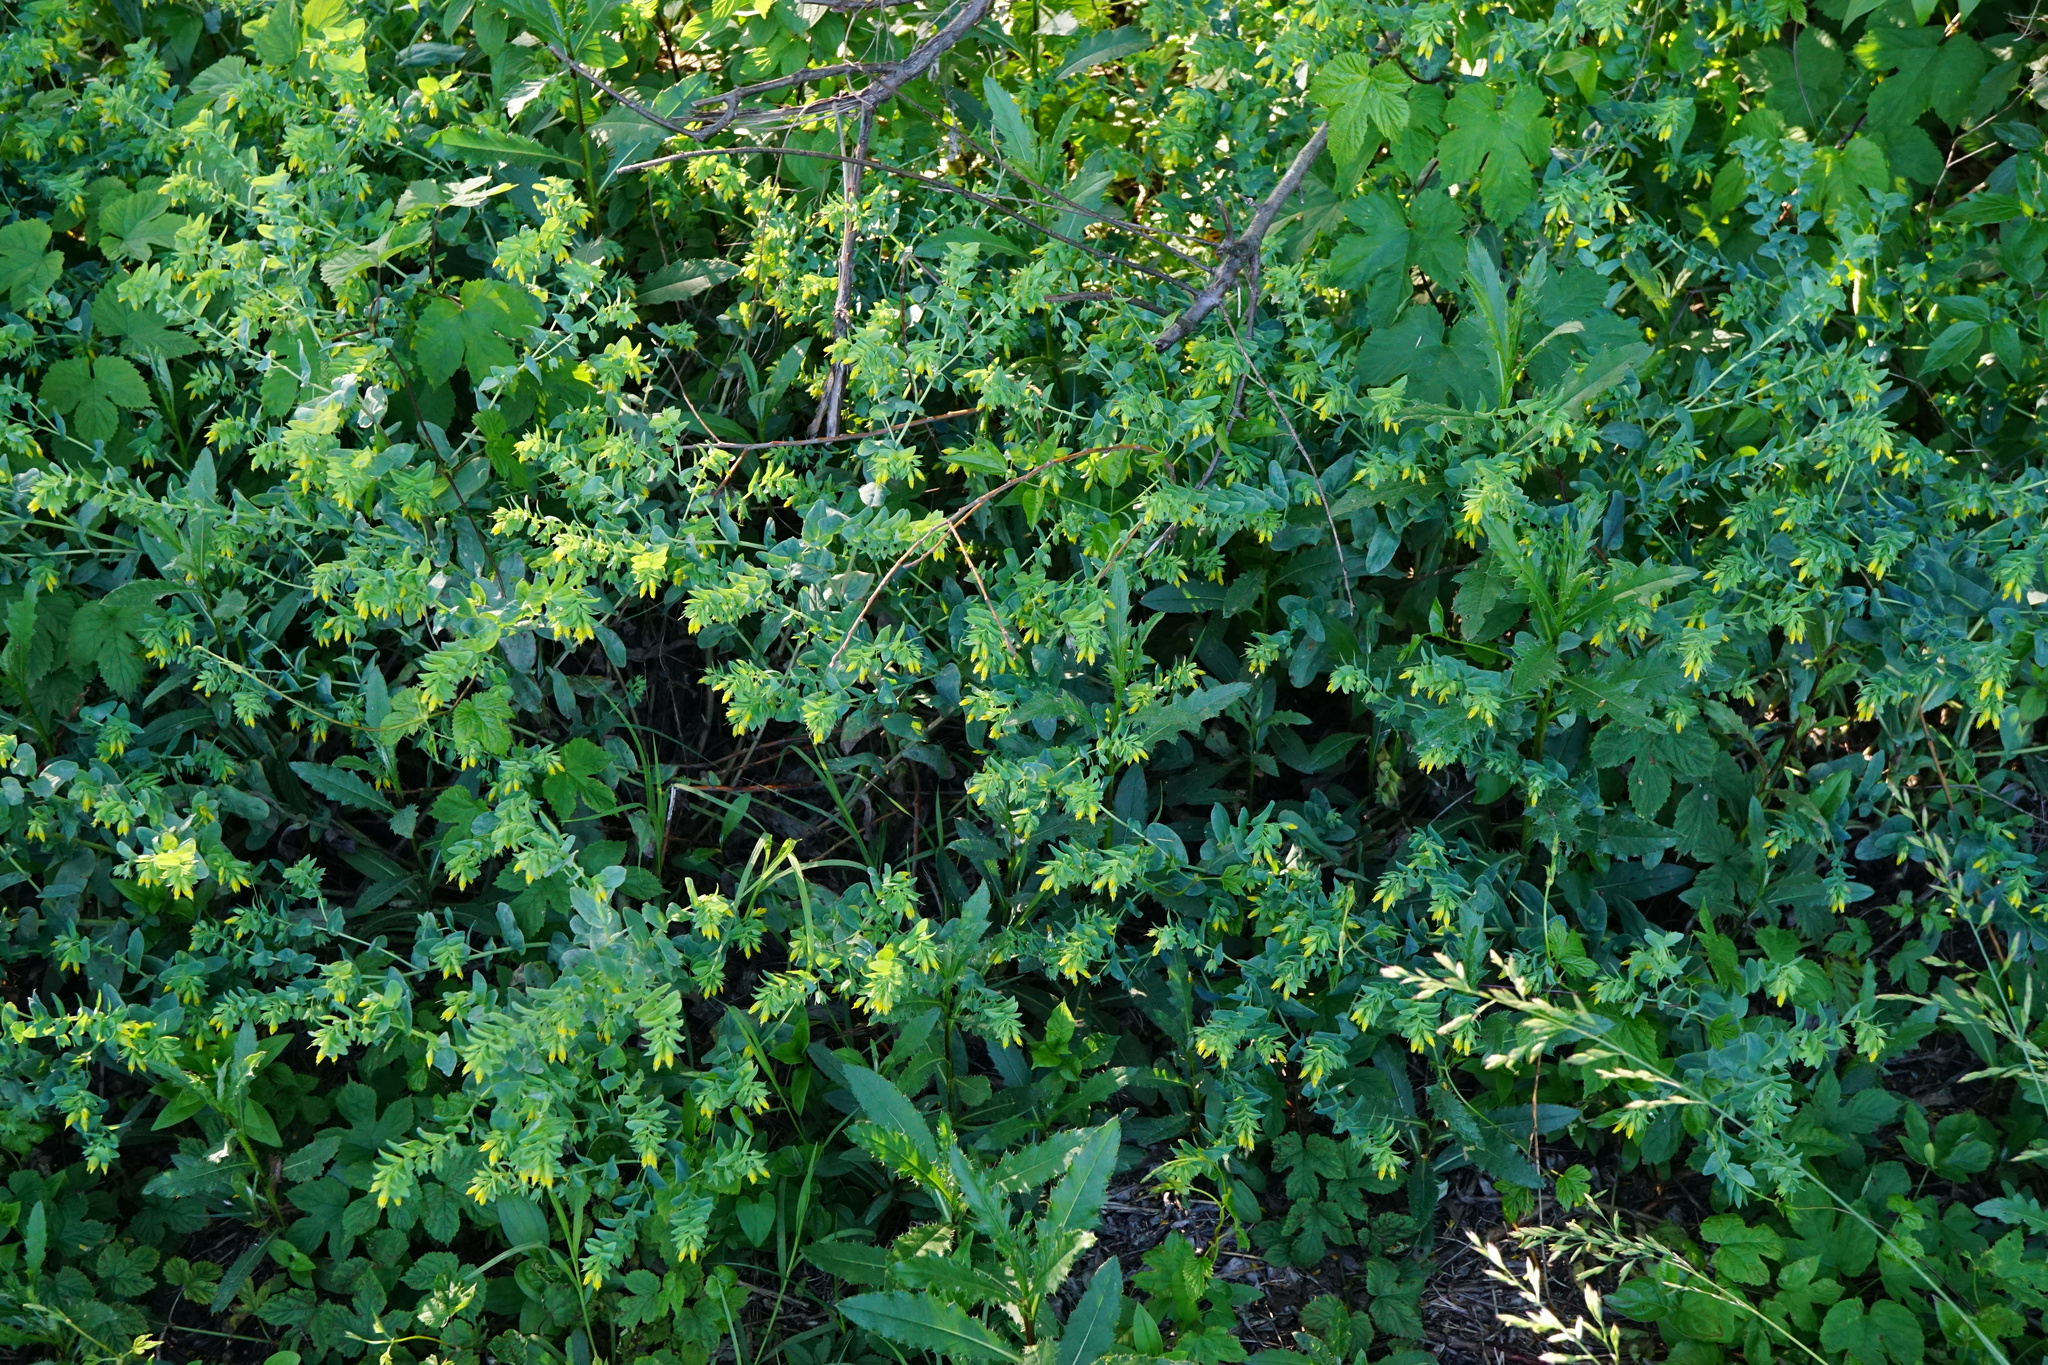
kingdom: Plantae
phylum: Tracheophyta
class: Magnoliopsida
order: Boraginales
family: Boraginaceae
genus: Cerinthe
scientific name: Cerinthe minor
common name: Lesser honeywort
